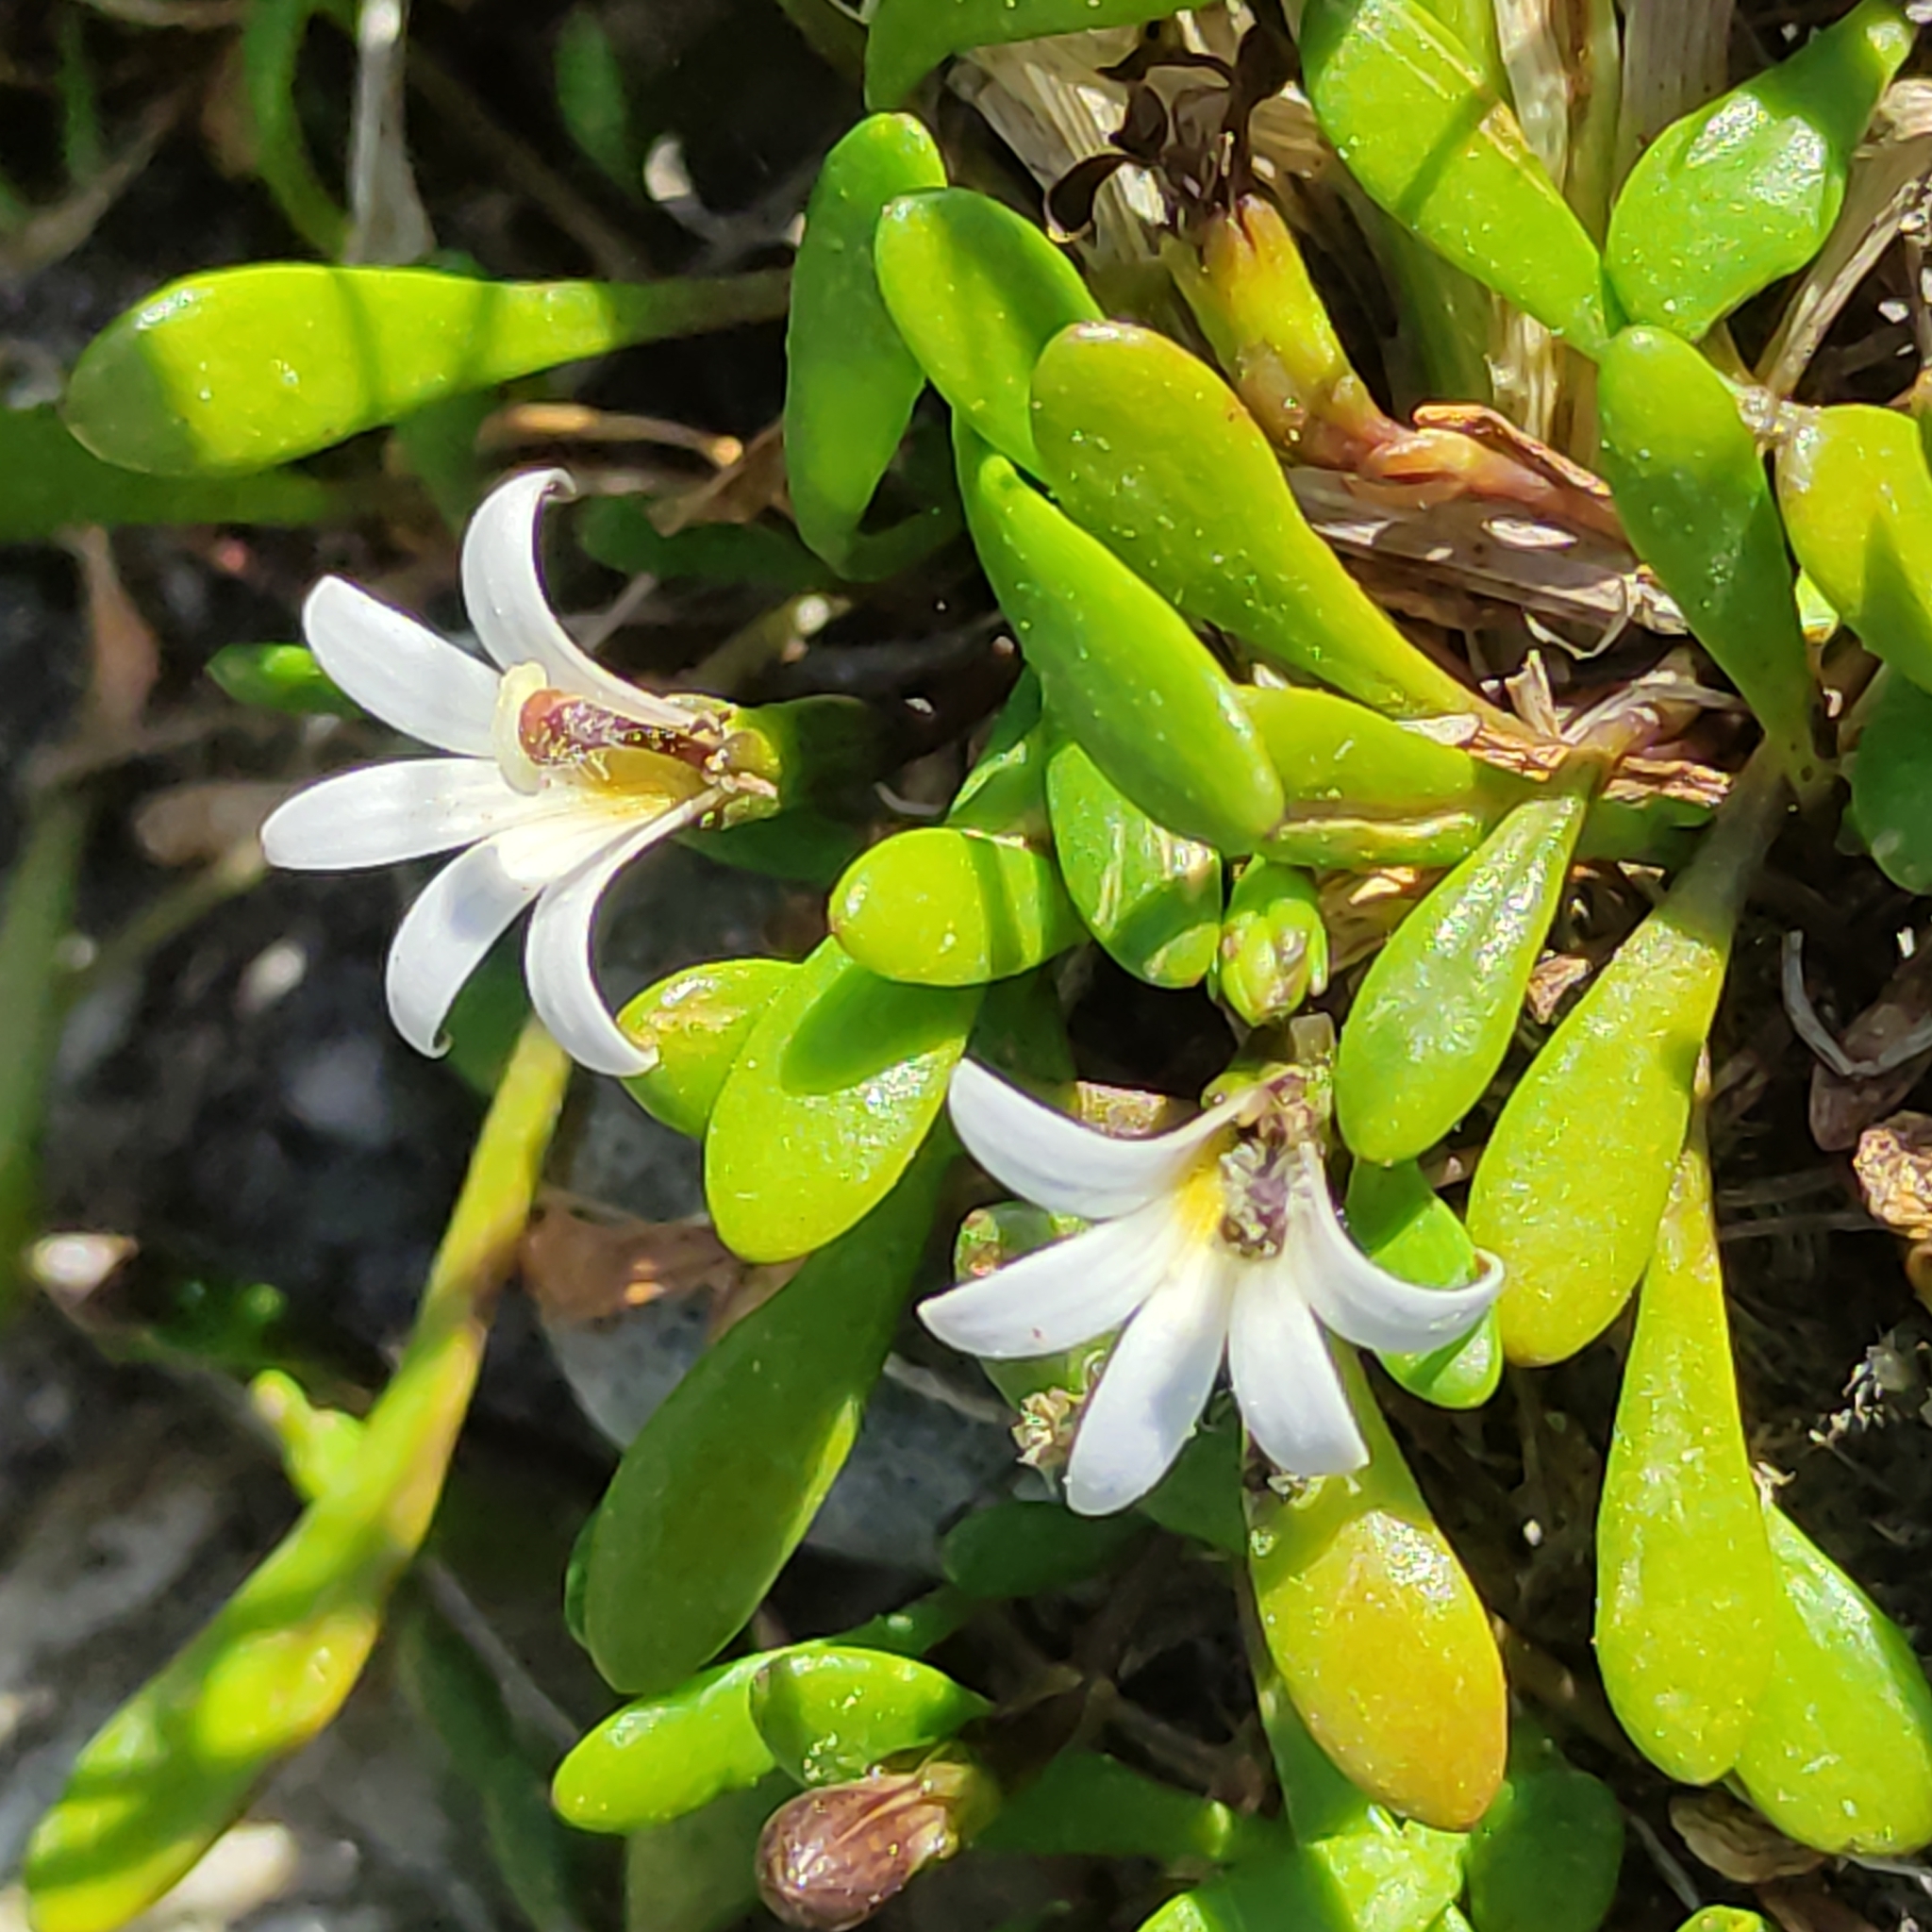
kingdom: Plantae
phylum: Tracheophyta
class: Magnoliopsida
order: Asterales
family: Goodeniaceae
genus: Goodenia
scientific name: Goodenia radicans
